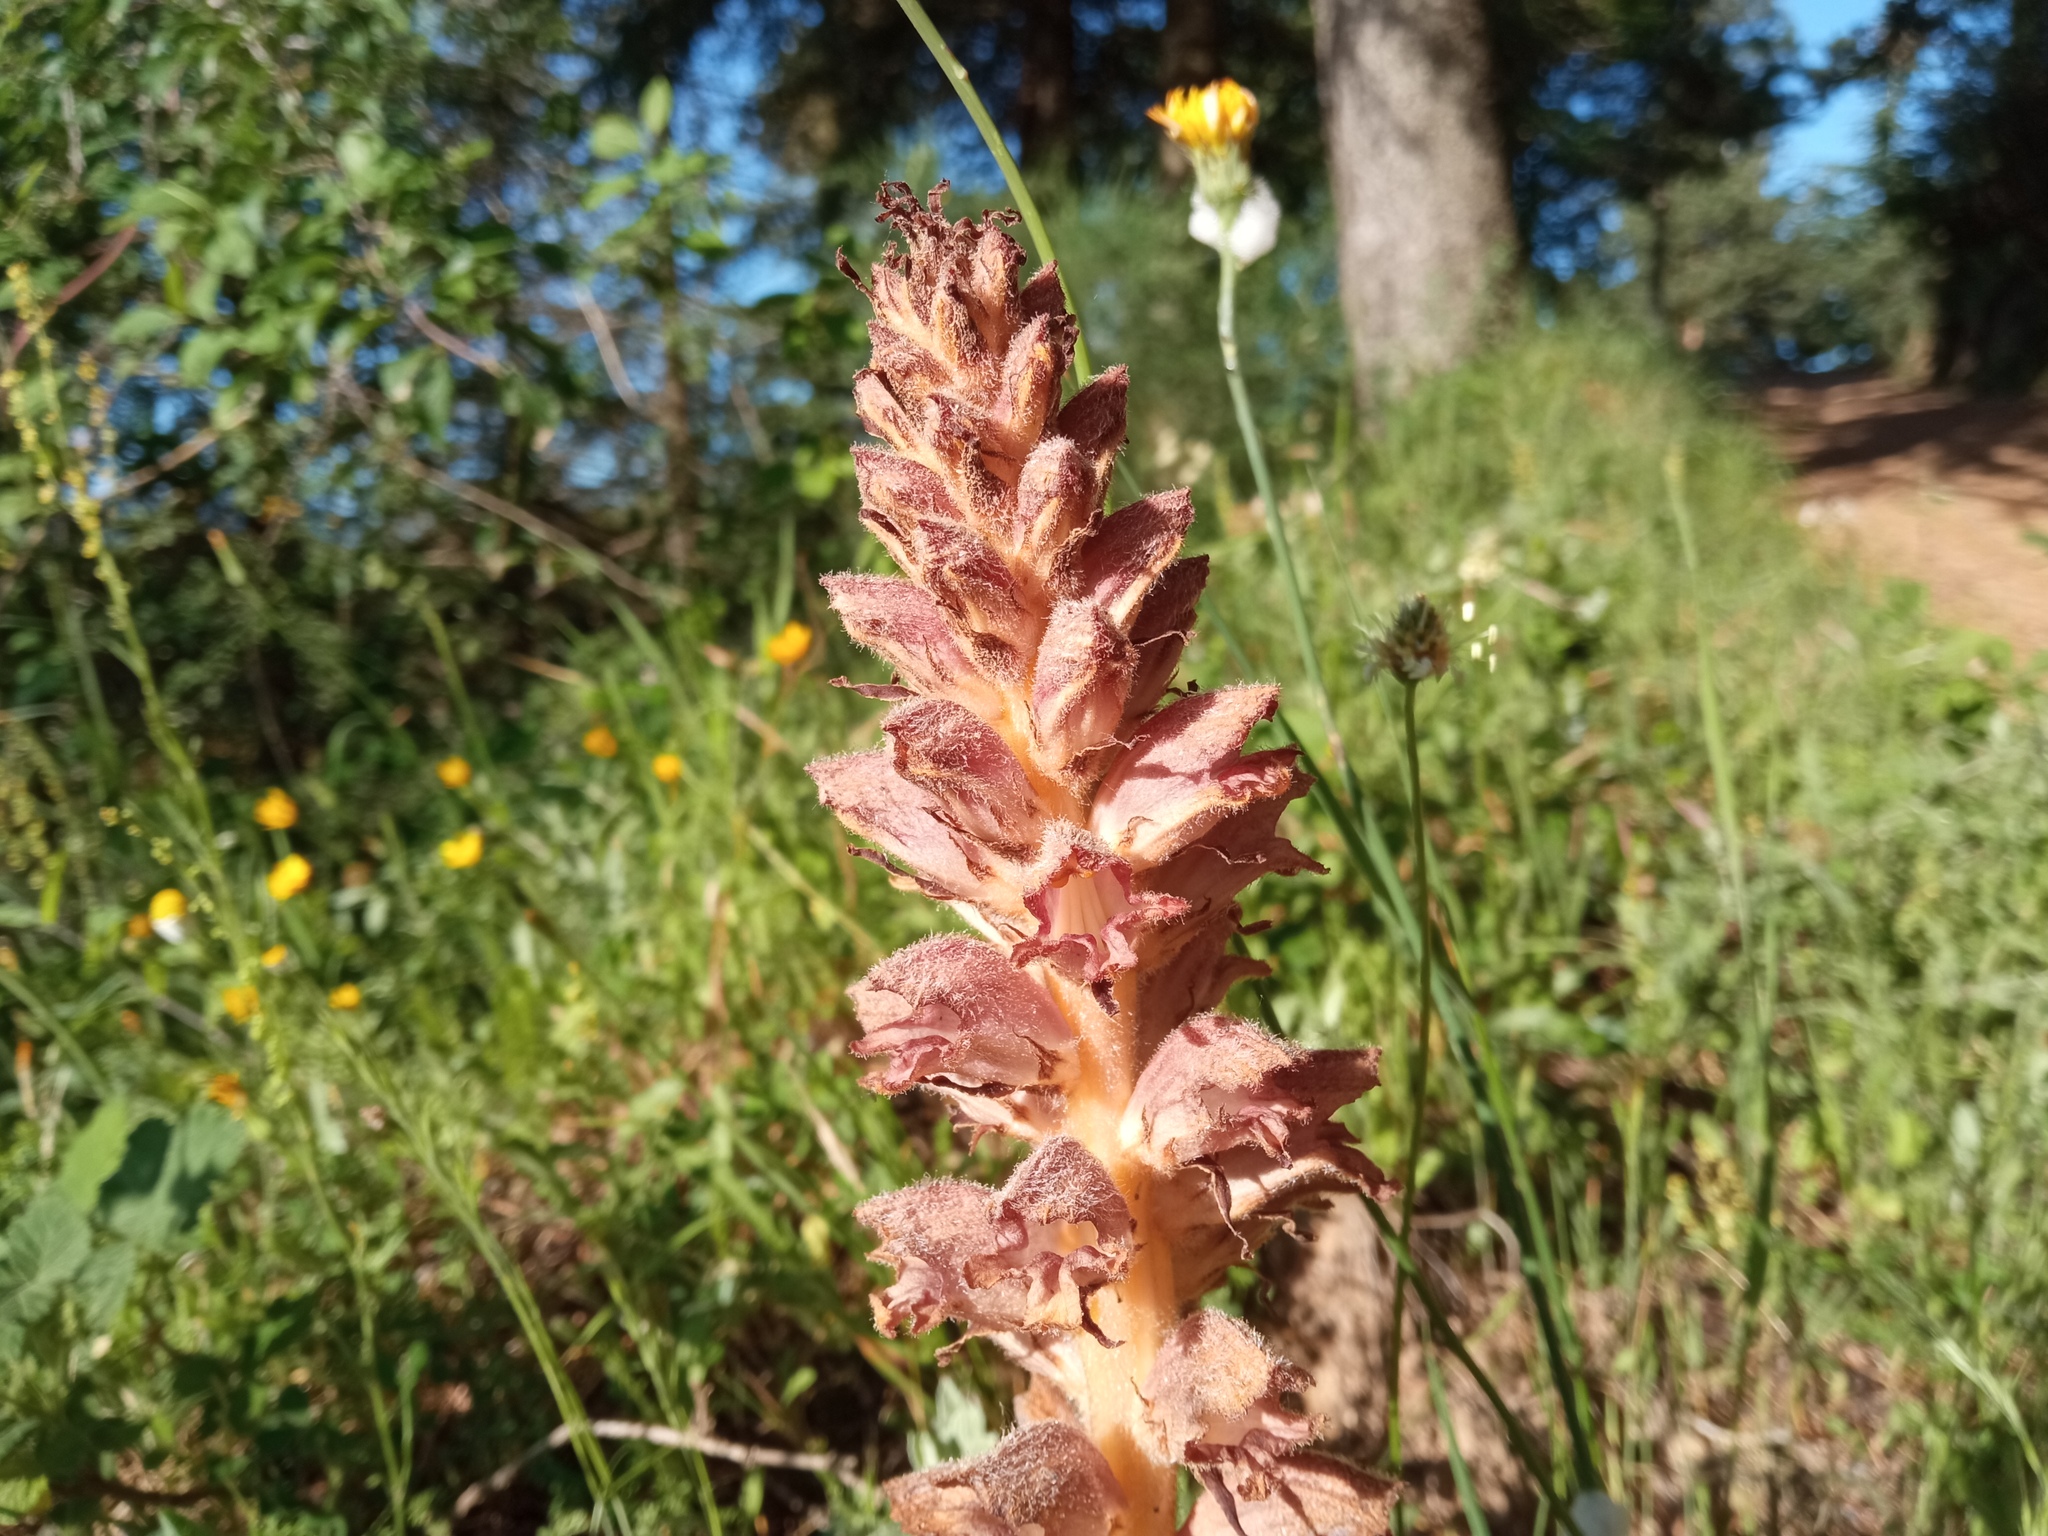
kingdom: Plantae
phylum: Tracheophyta
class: Magnoliopsida
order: Lamiales
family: Orobanchaceae
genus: Orobanche
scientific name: Orobanche rapum-genistae
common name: Greater broomrape
